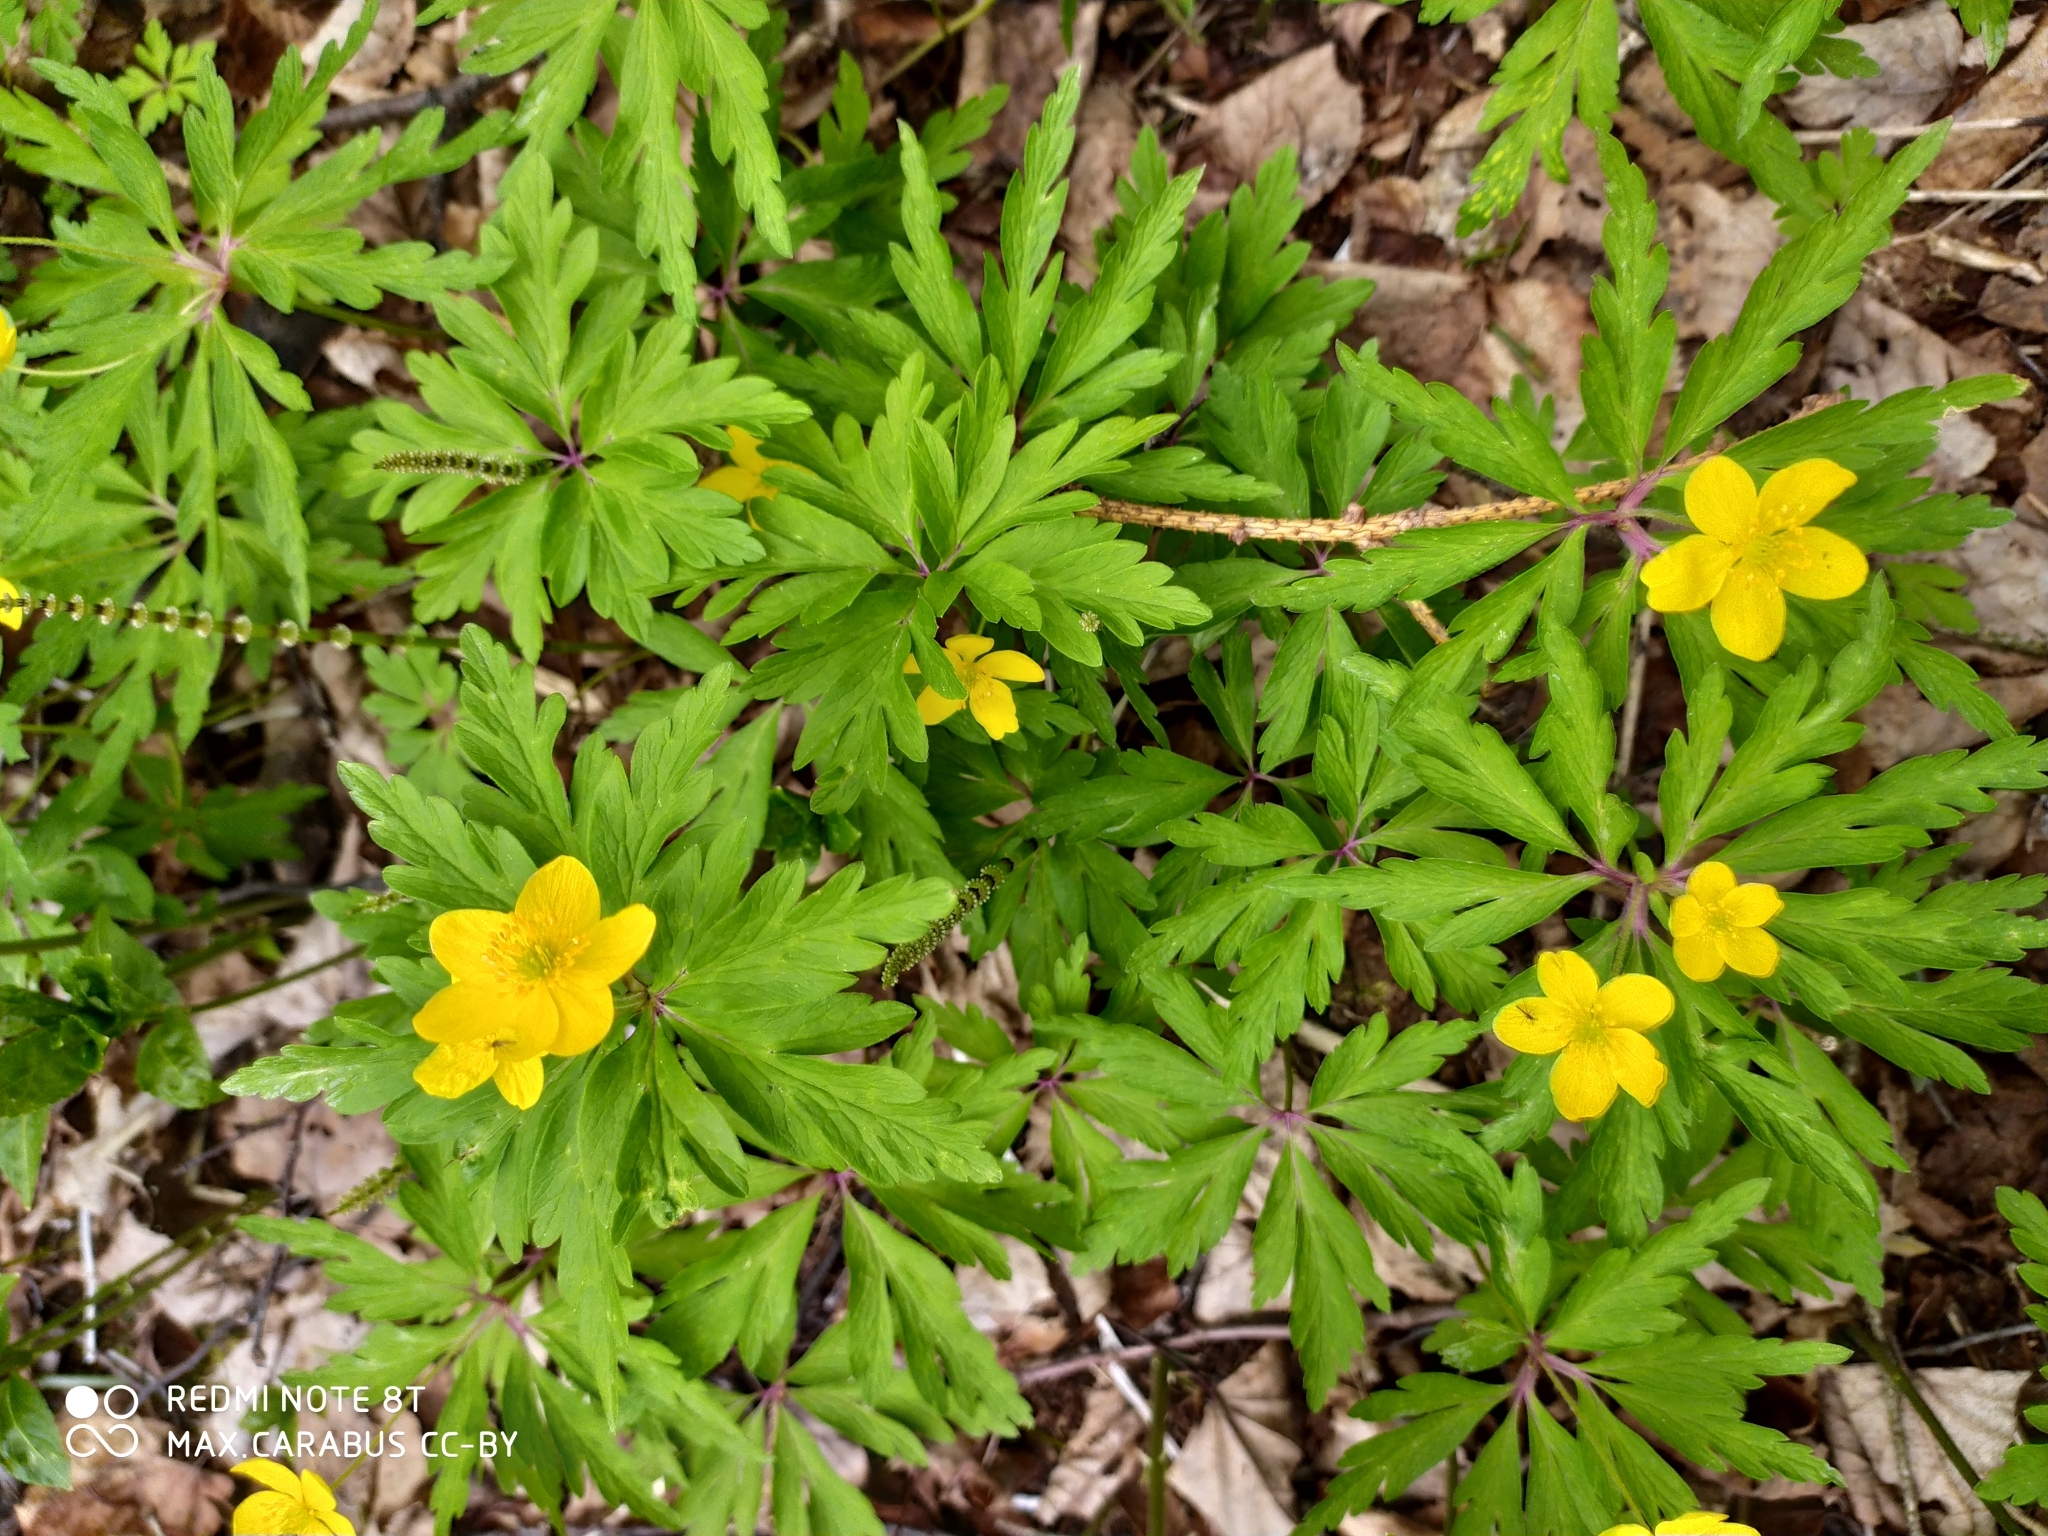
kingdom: Plantae
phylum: Tracheophyta
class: Magnoliopsida
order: Ranunculales
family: Ranunculaceae
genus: Anemone
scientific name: Anemone ranunculoides
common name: Yellow anemone
